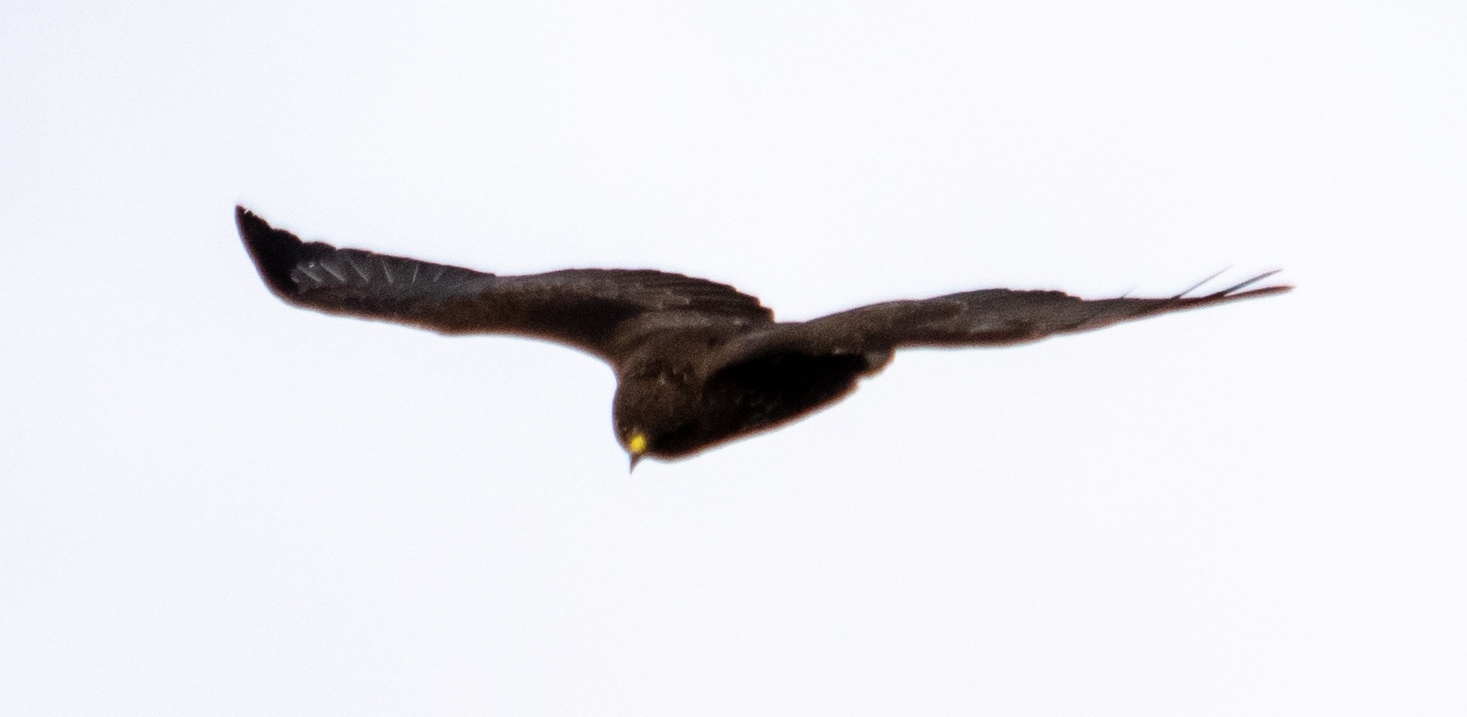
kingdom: Animalia
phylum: Chordata
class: Aves
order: Accipitriformes
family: Accipitridae
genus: Buteo
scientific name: Buteo buteo
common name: Common buzzard
